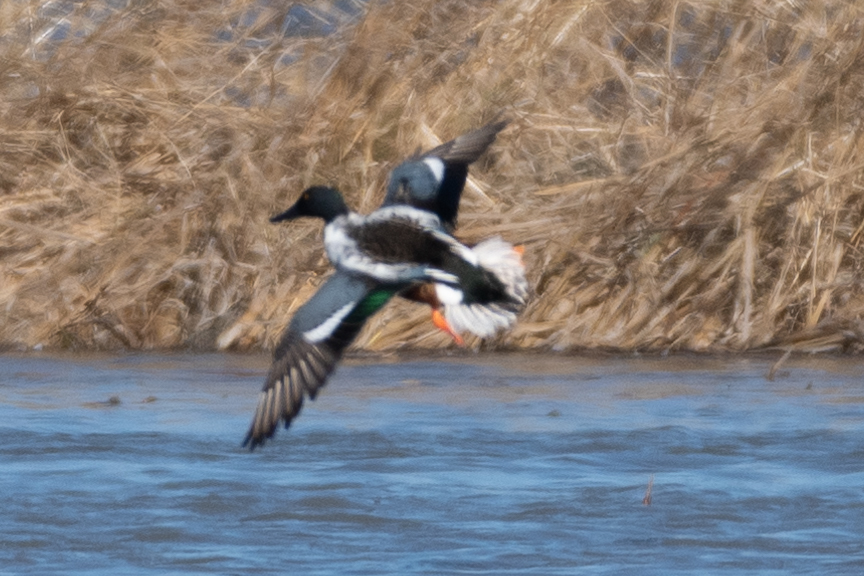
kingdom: Animalia
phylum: Chordata
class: Aves
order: Anseriformes
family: Anatidae
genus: Spatula
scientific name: Spatula clypeata
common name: Northern shoveler
